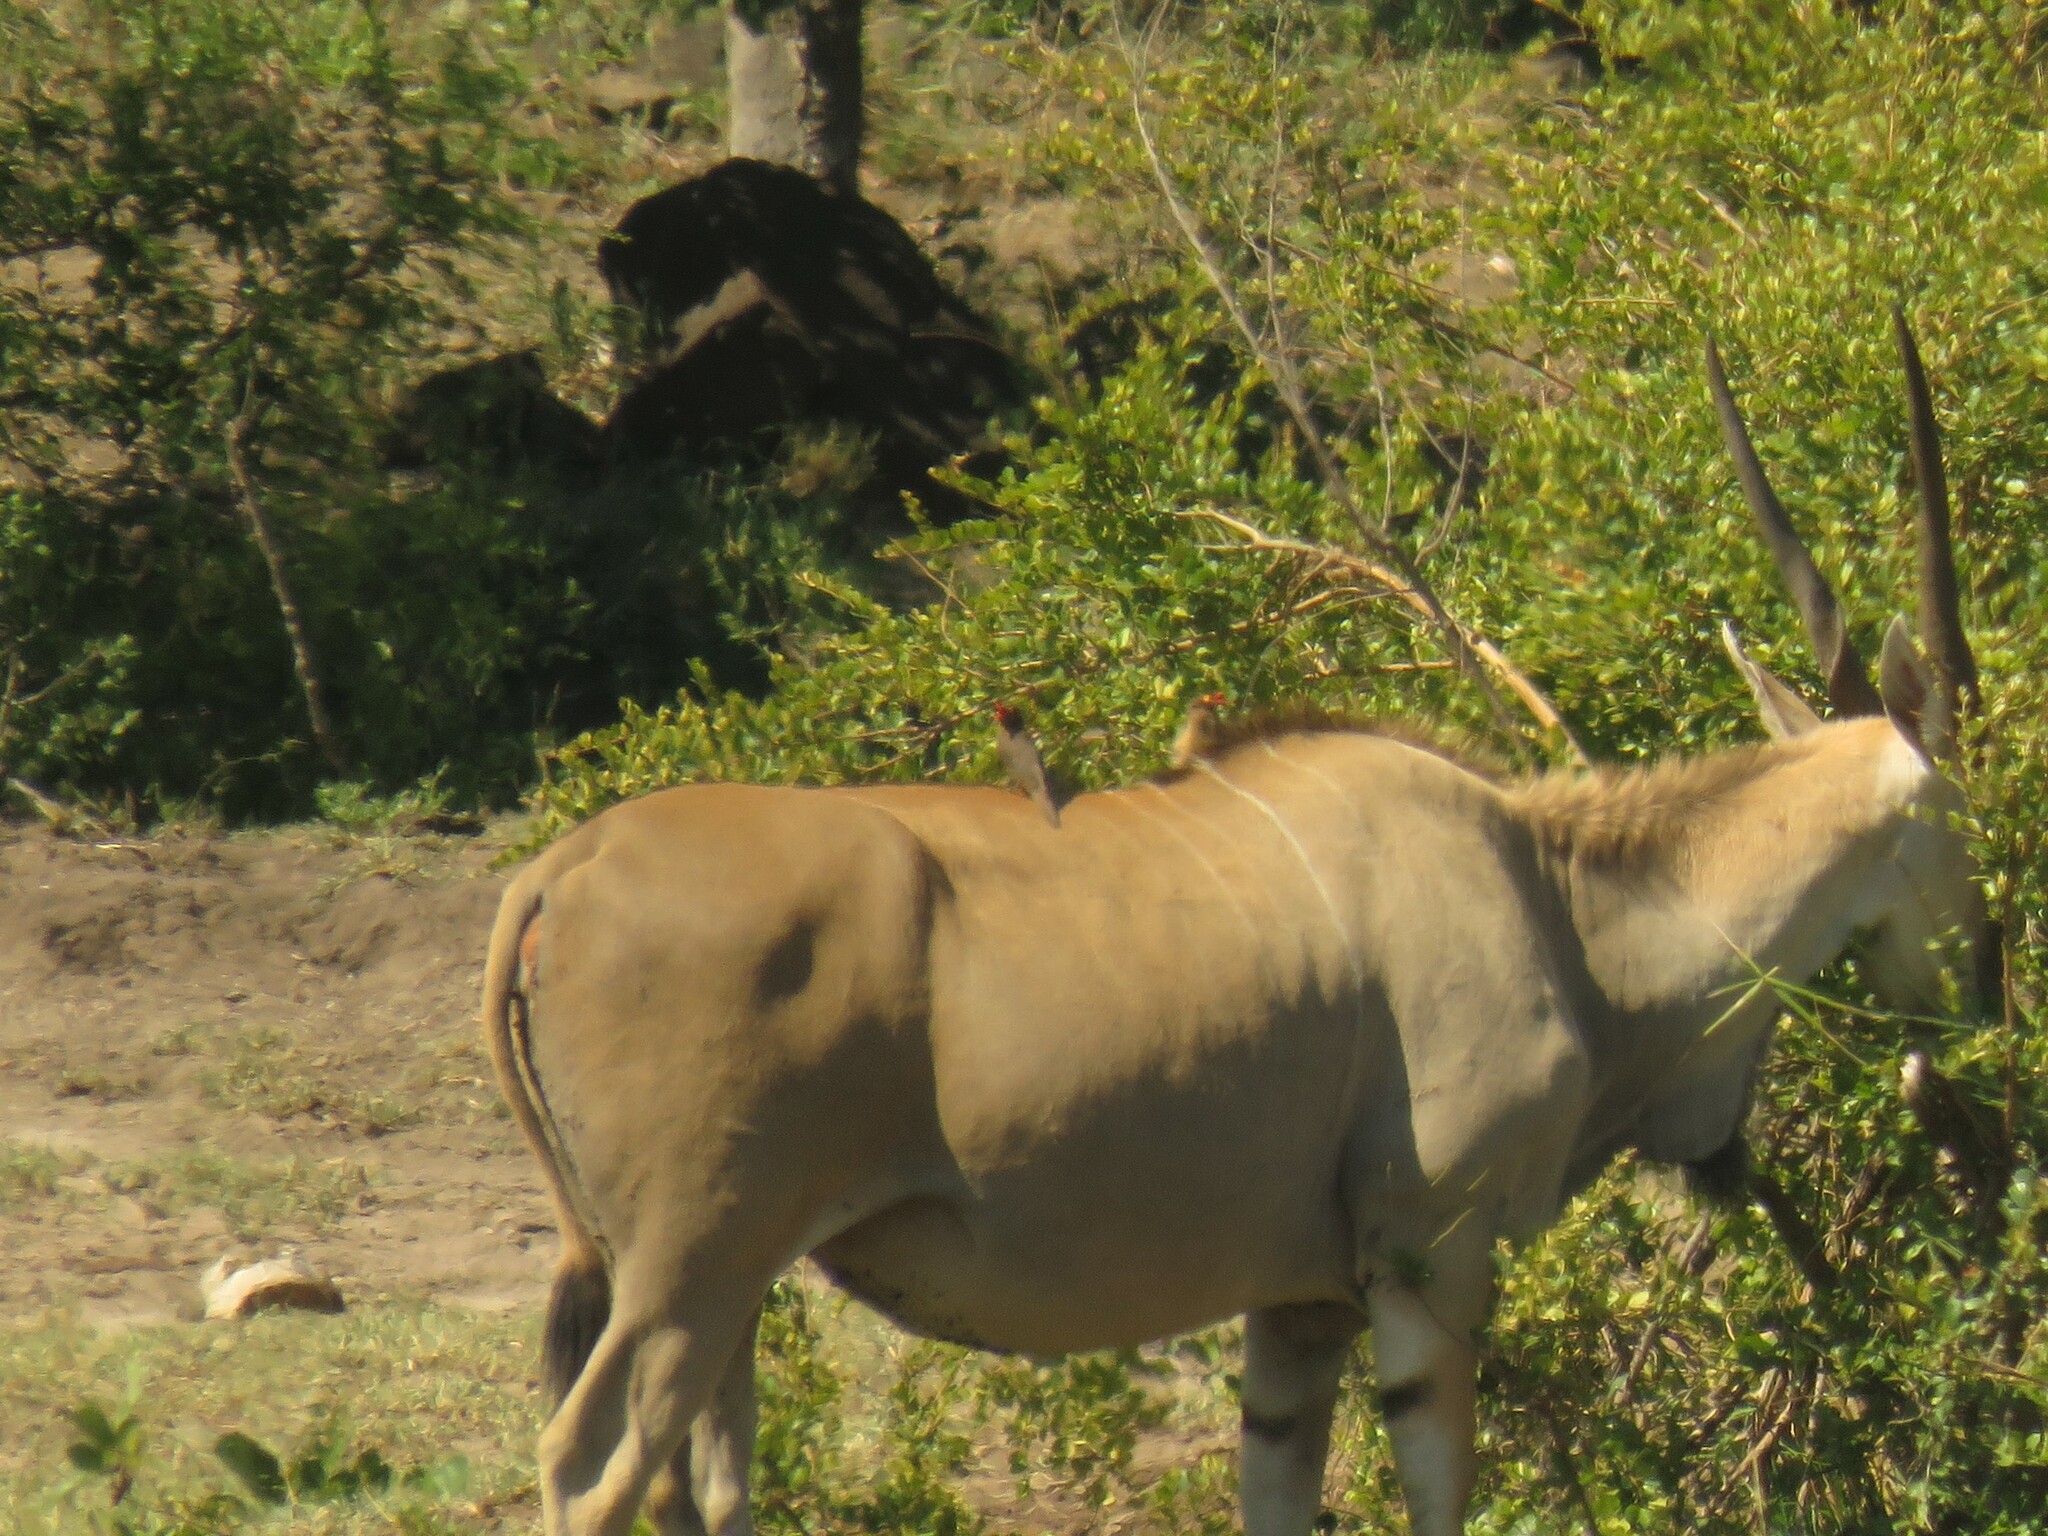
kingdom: Animalia
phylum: Chordata
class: Aves
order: Passeriformes
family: Buphagidae
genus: Buphagus
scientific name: Buphagus erythrorhynchus
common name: Red-billed oxpecker
